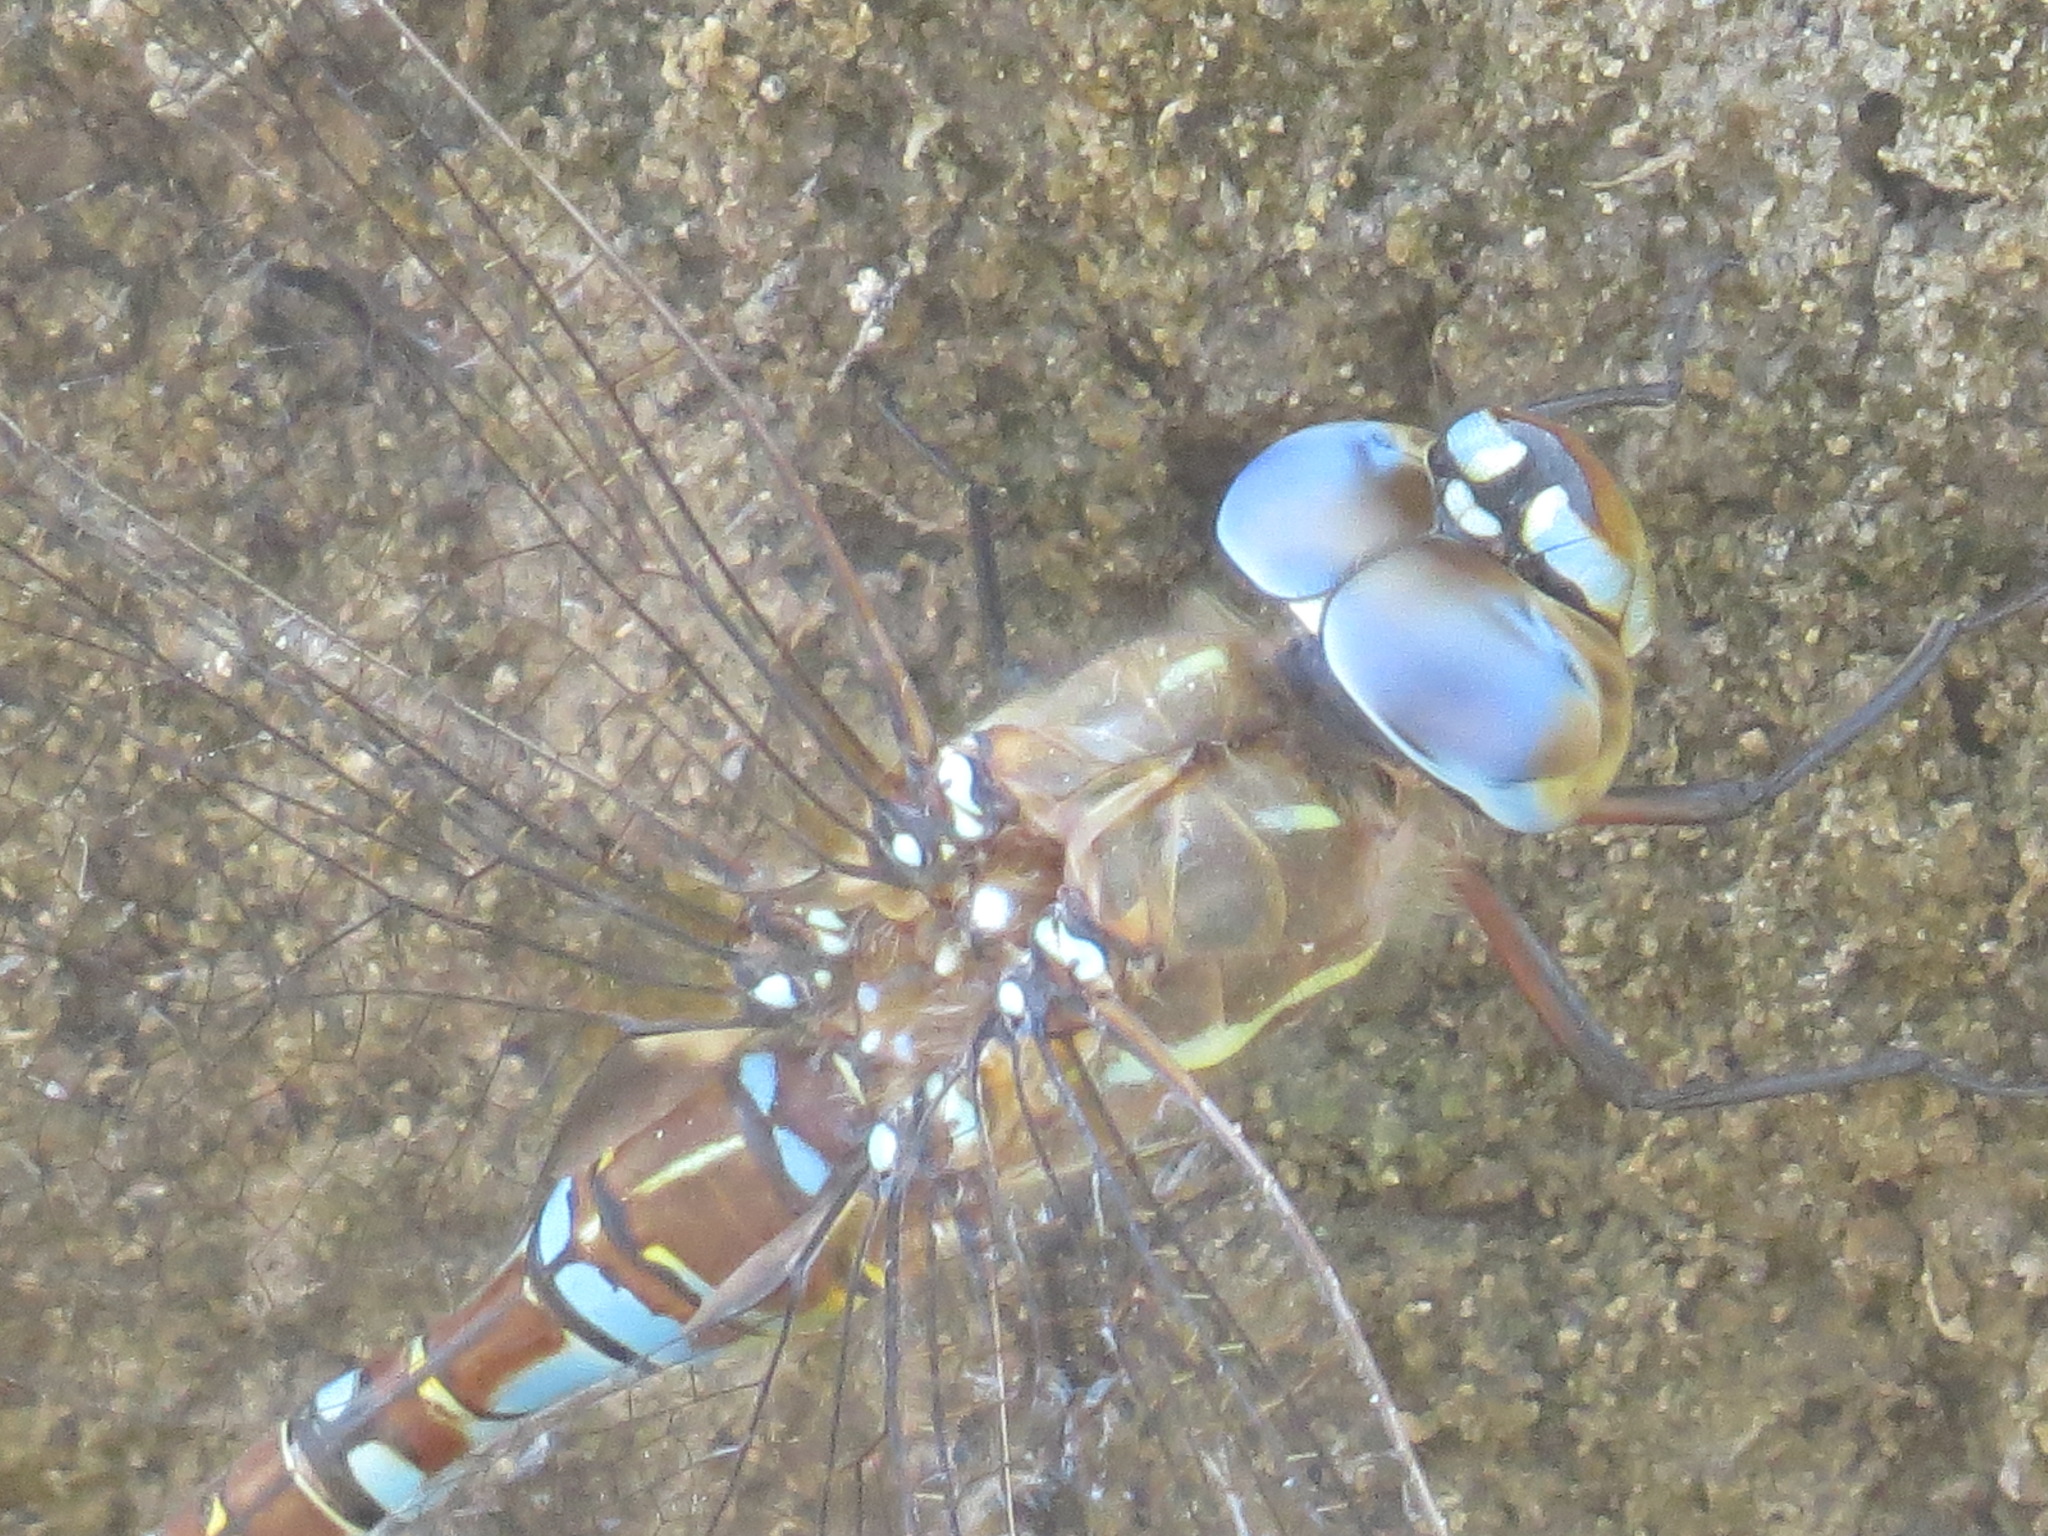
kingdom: Animalia
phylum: Arthropoda
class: Insecta
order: Odonata
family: Aeshnidae
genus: Rhionaeschna
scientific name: Rhionaeschna multicolor
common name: Blue-eyed darner
